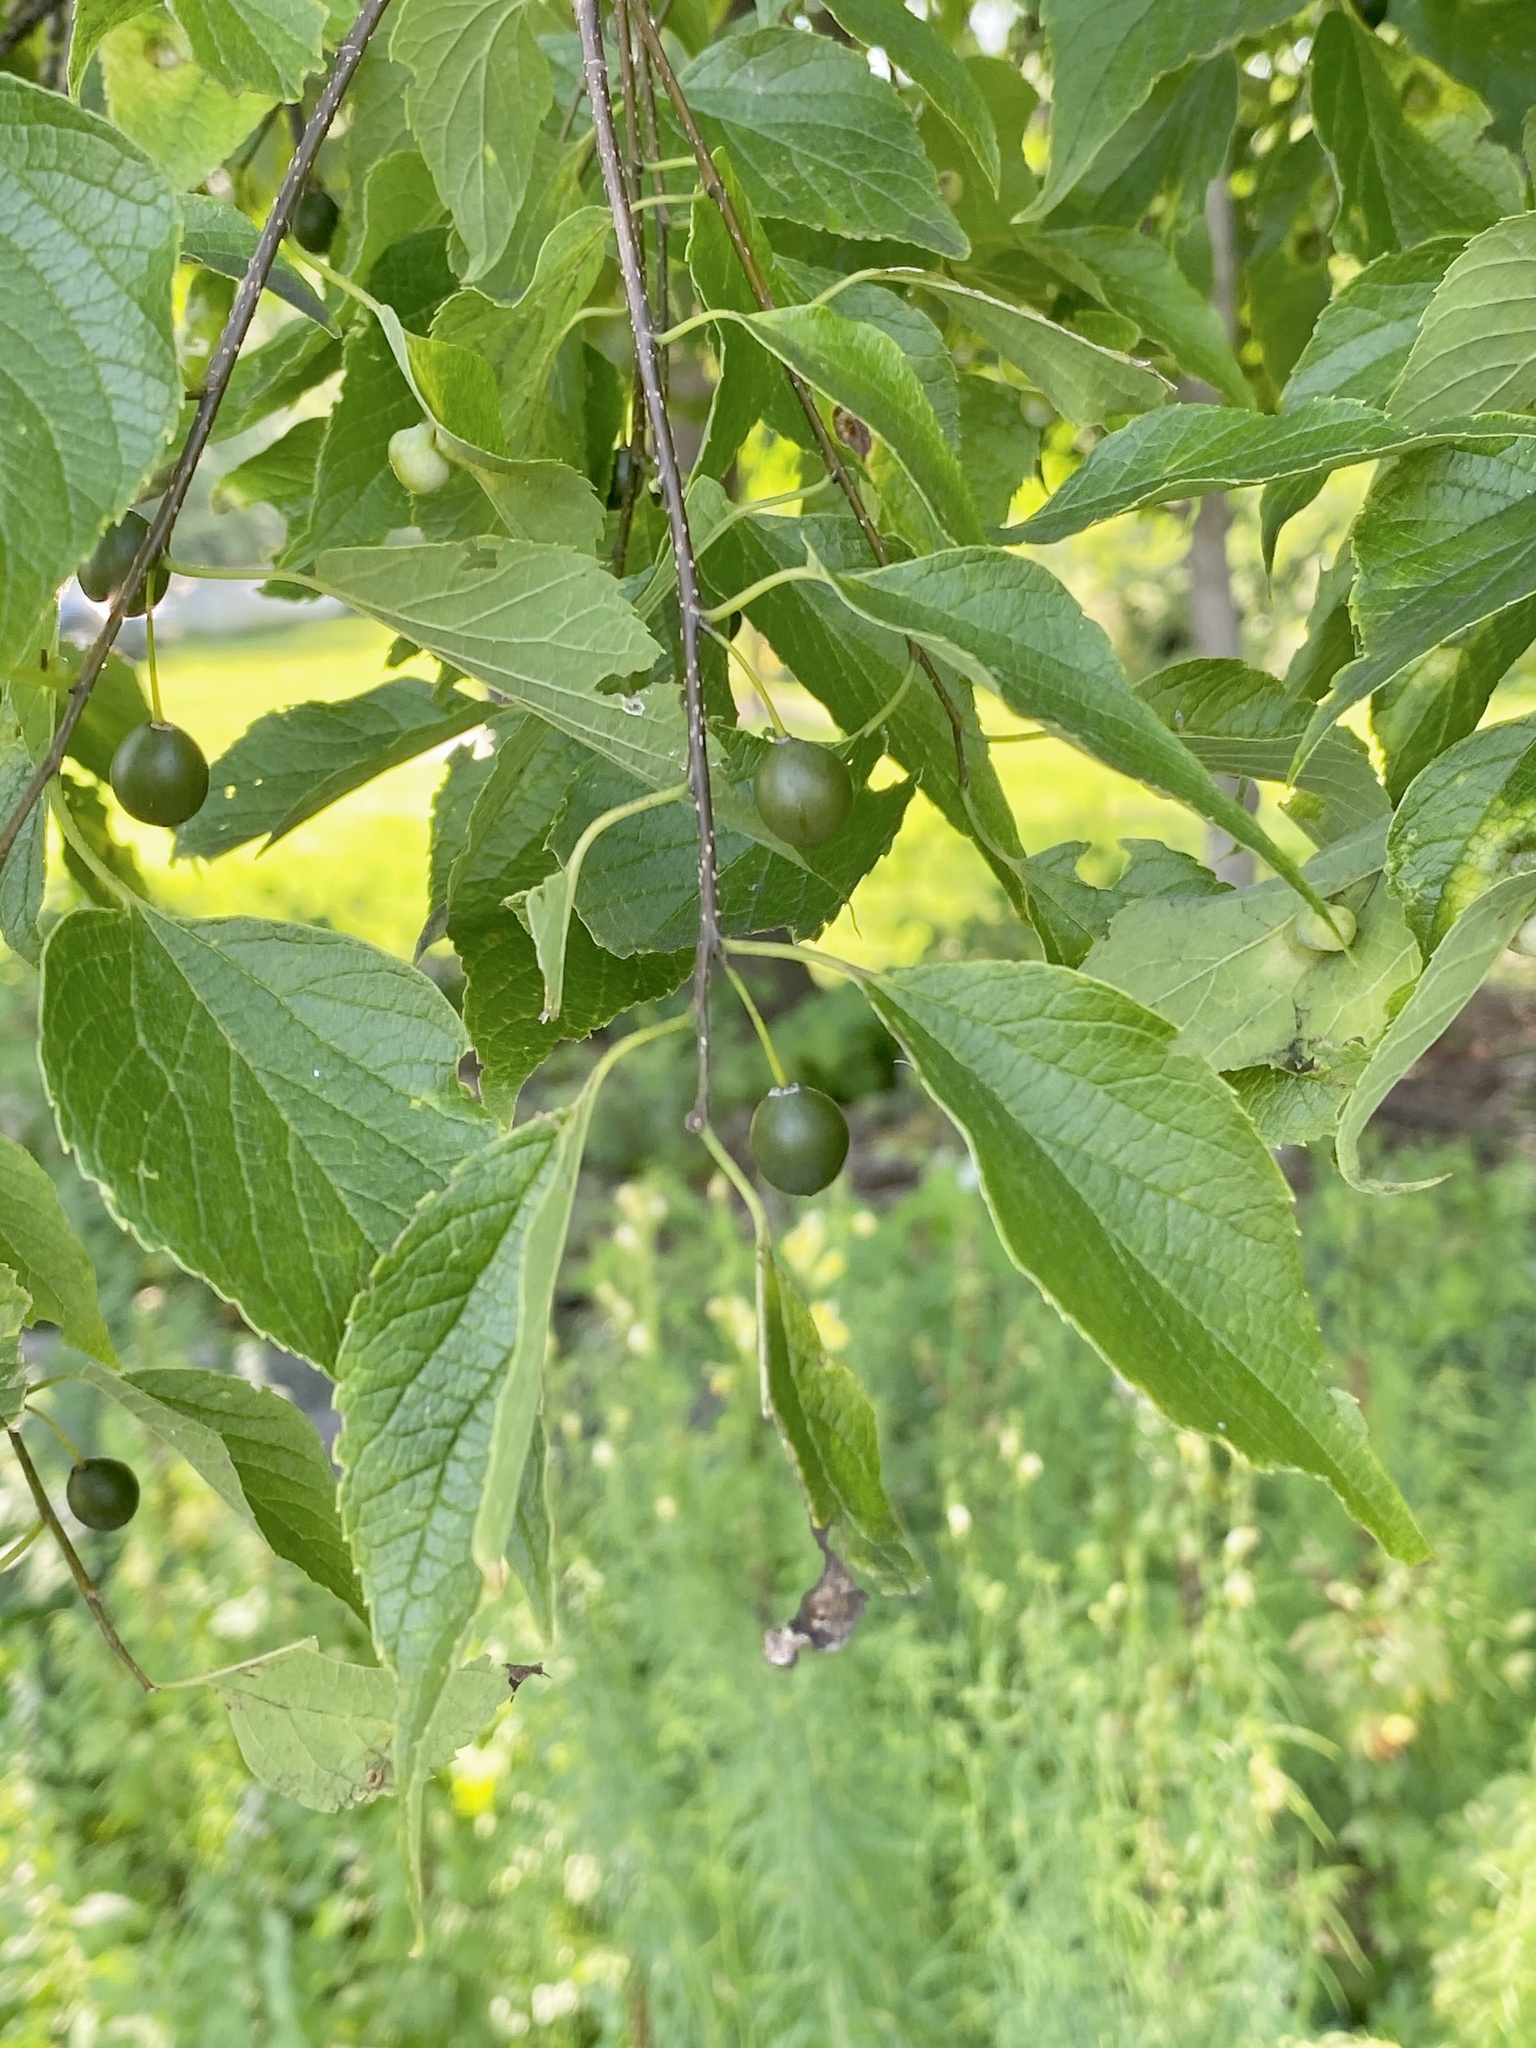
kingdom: Plantae
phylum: Tracheophyta
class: Magnoliopsida
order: Rosales
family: Cannabaceae
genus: Celtis
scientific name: Celtis occidentalis
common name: Common hackberry
